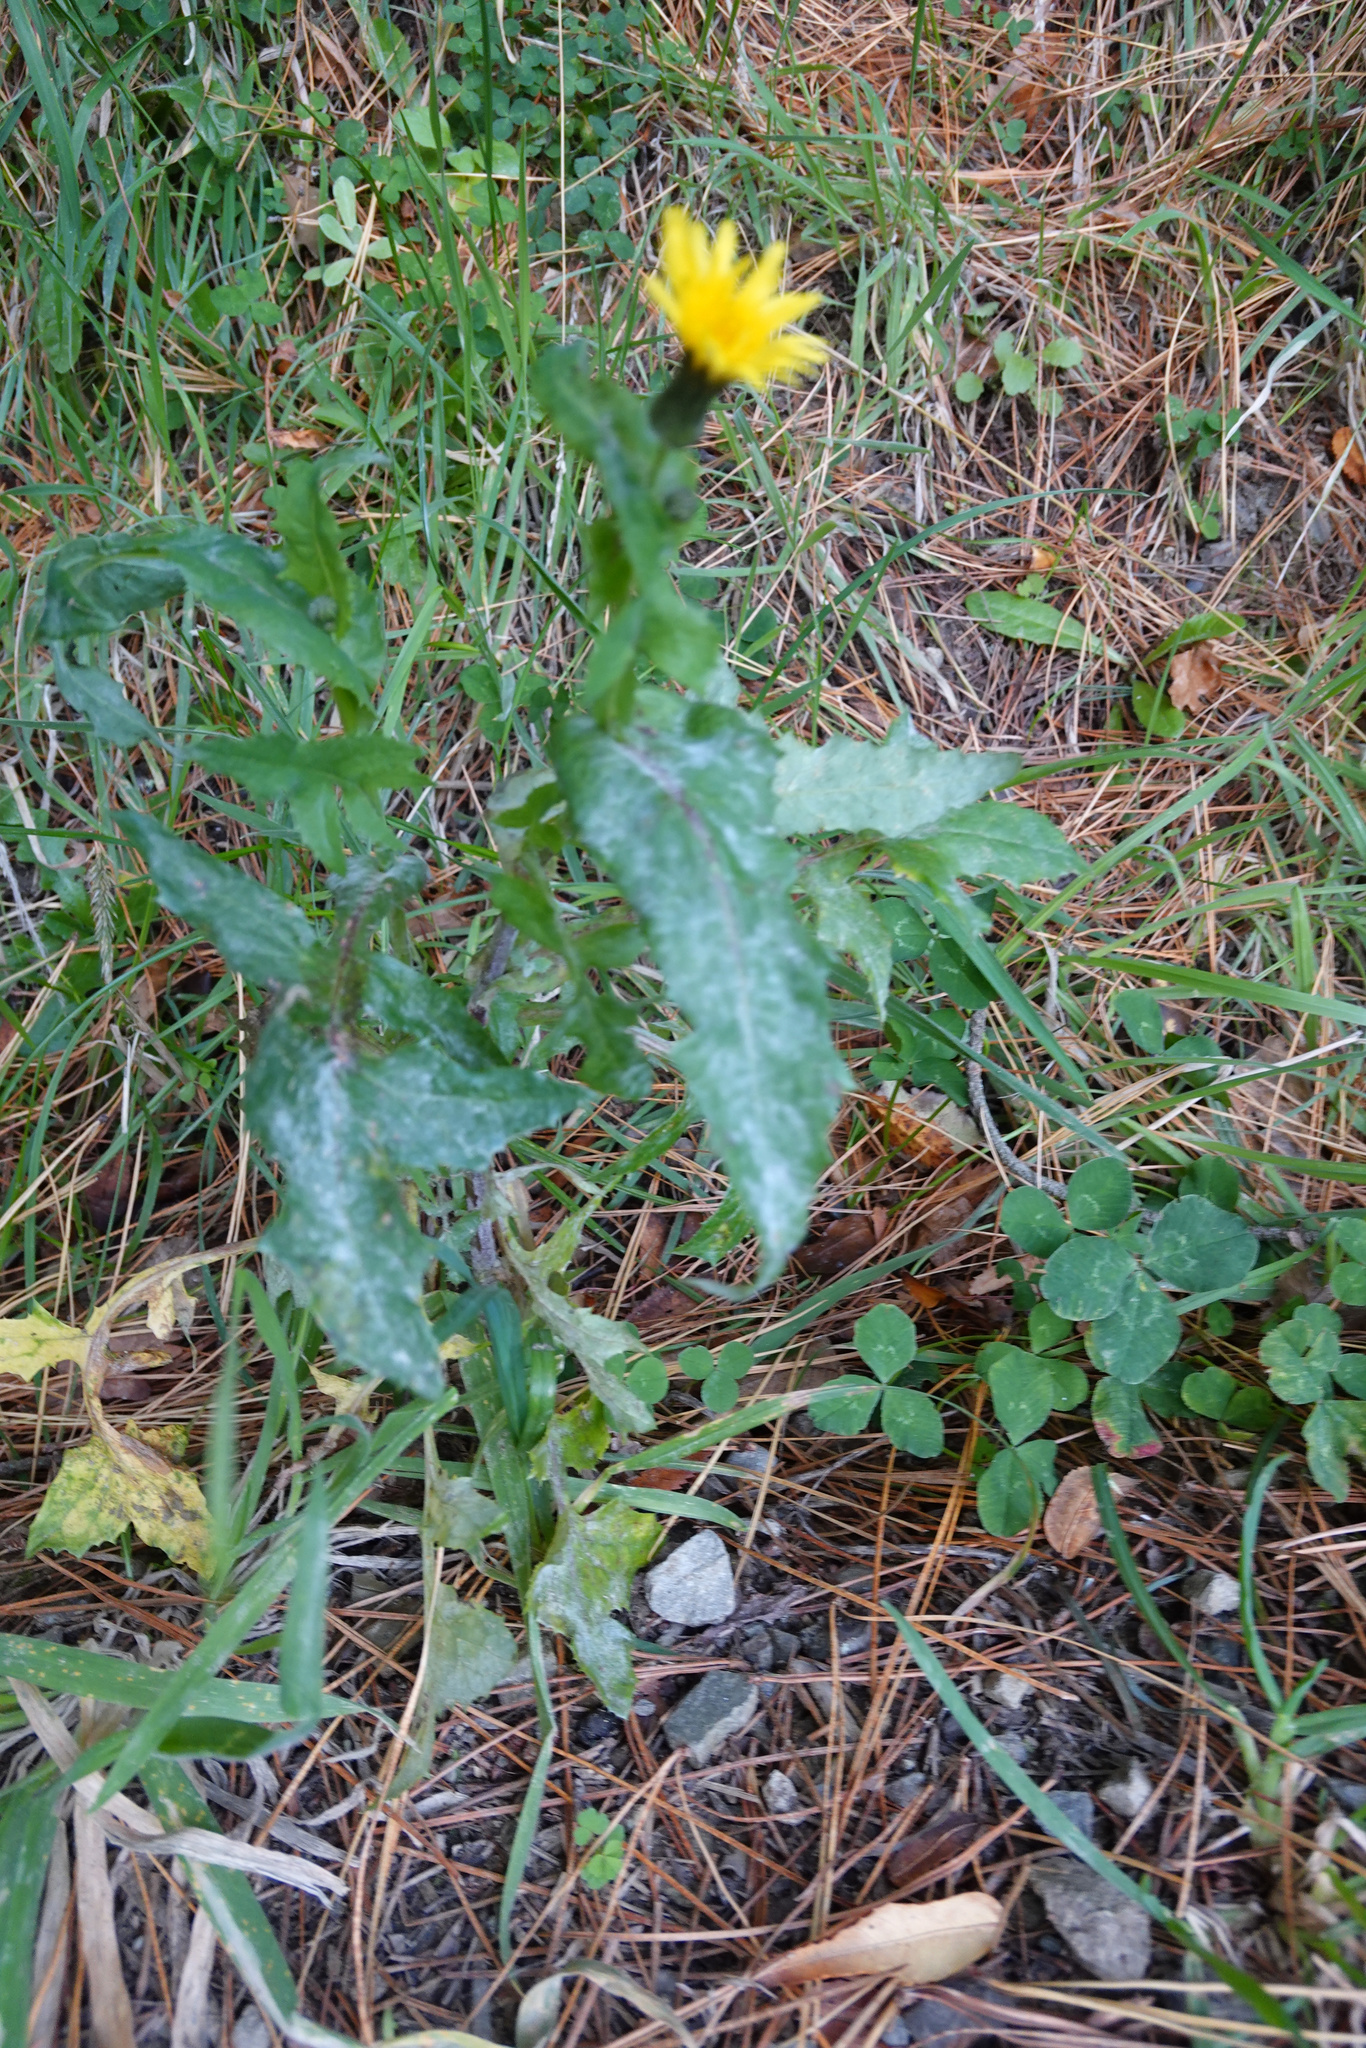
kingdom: Plantae
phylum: Tracheophyta
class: Magnoliopsida
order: Asterales
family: Asteraceae
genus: Sonchus
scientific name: Sonchus oleraceus
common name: Common sowthistle
